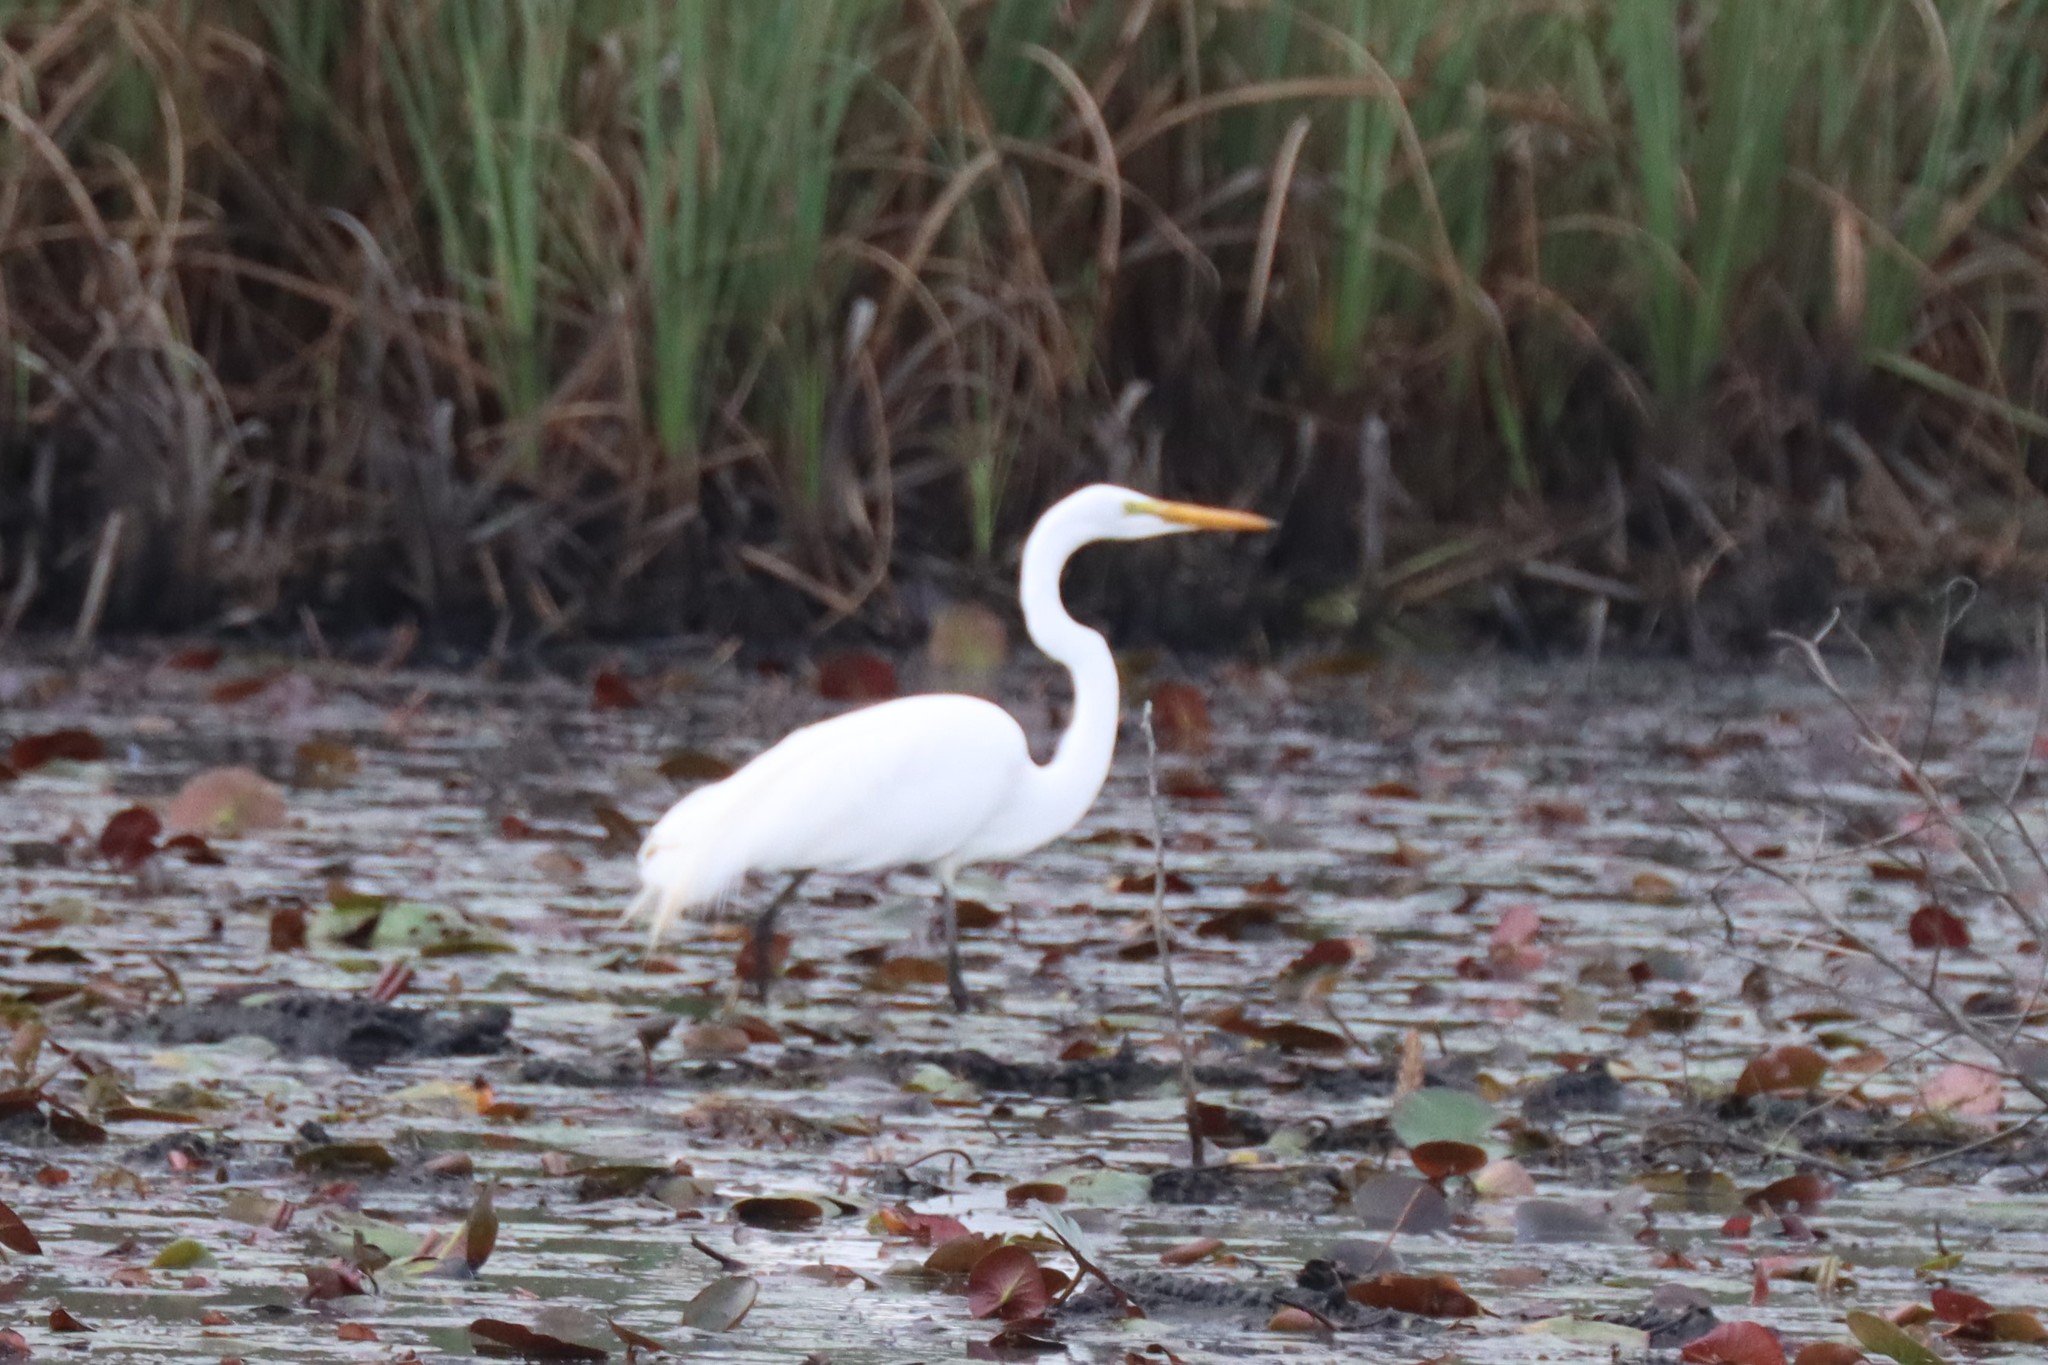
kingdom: Animalia
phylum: Chordata
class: Aves
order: Pelecaniformes
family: Ardeidae
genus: Ardea
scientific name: Ardea alba
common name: Great egret
